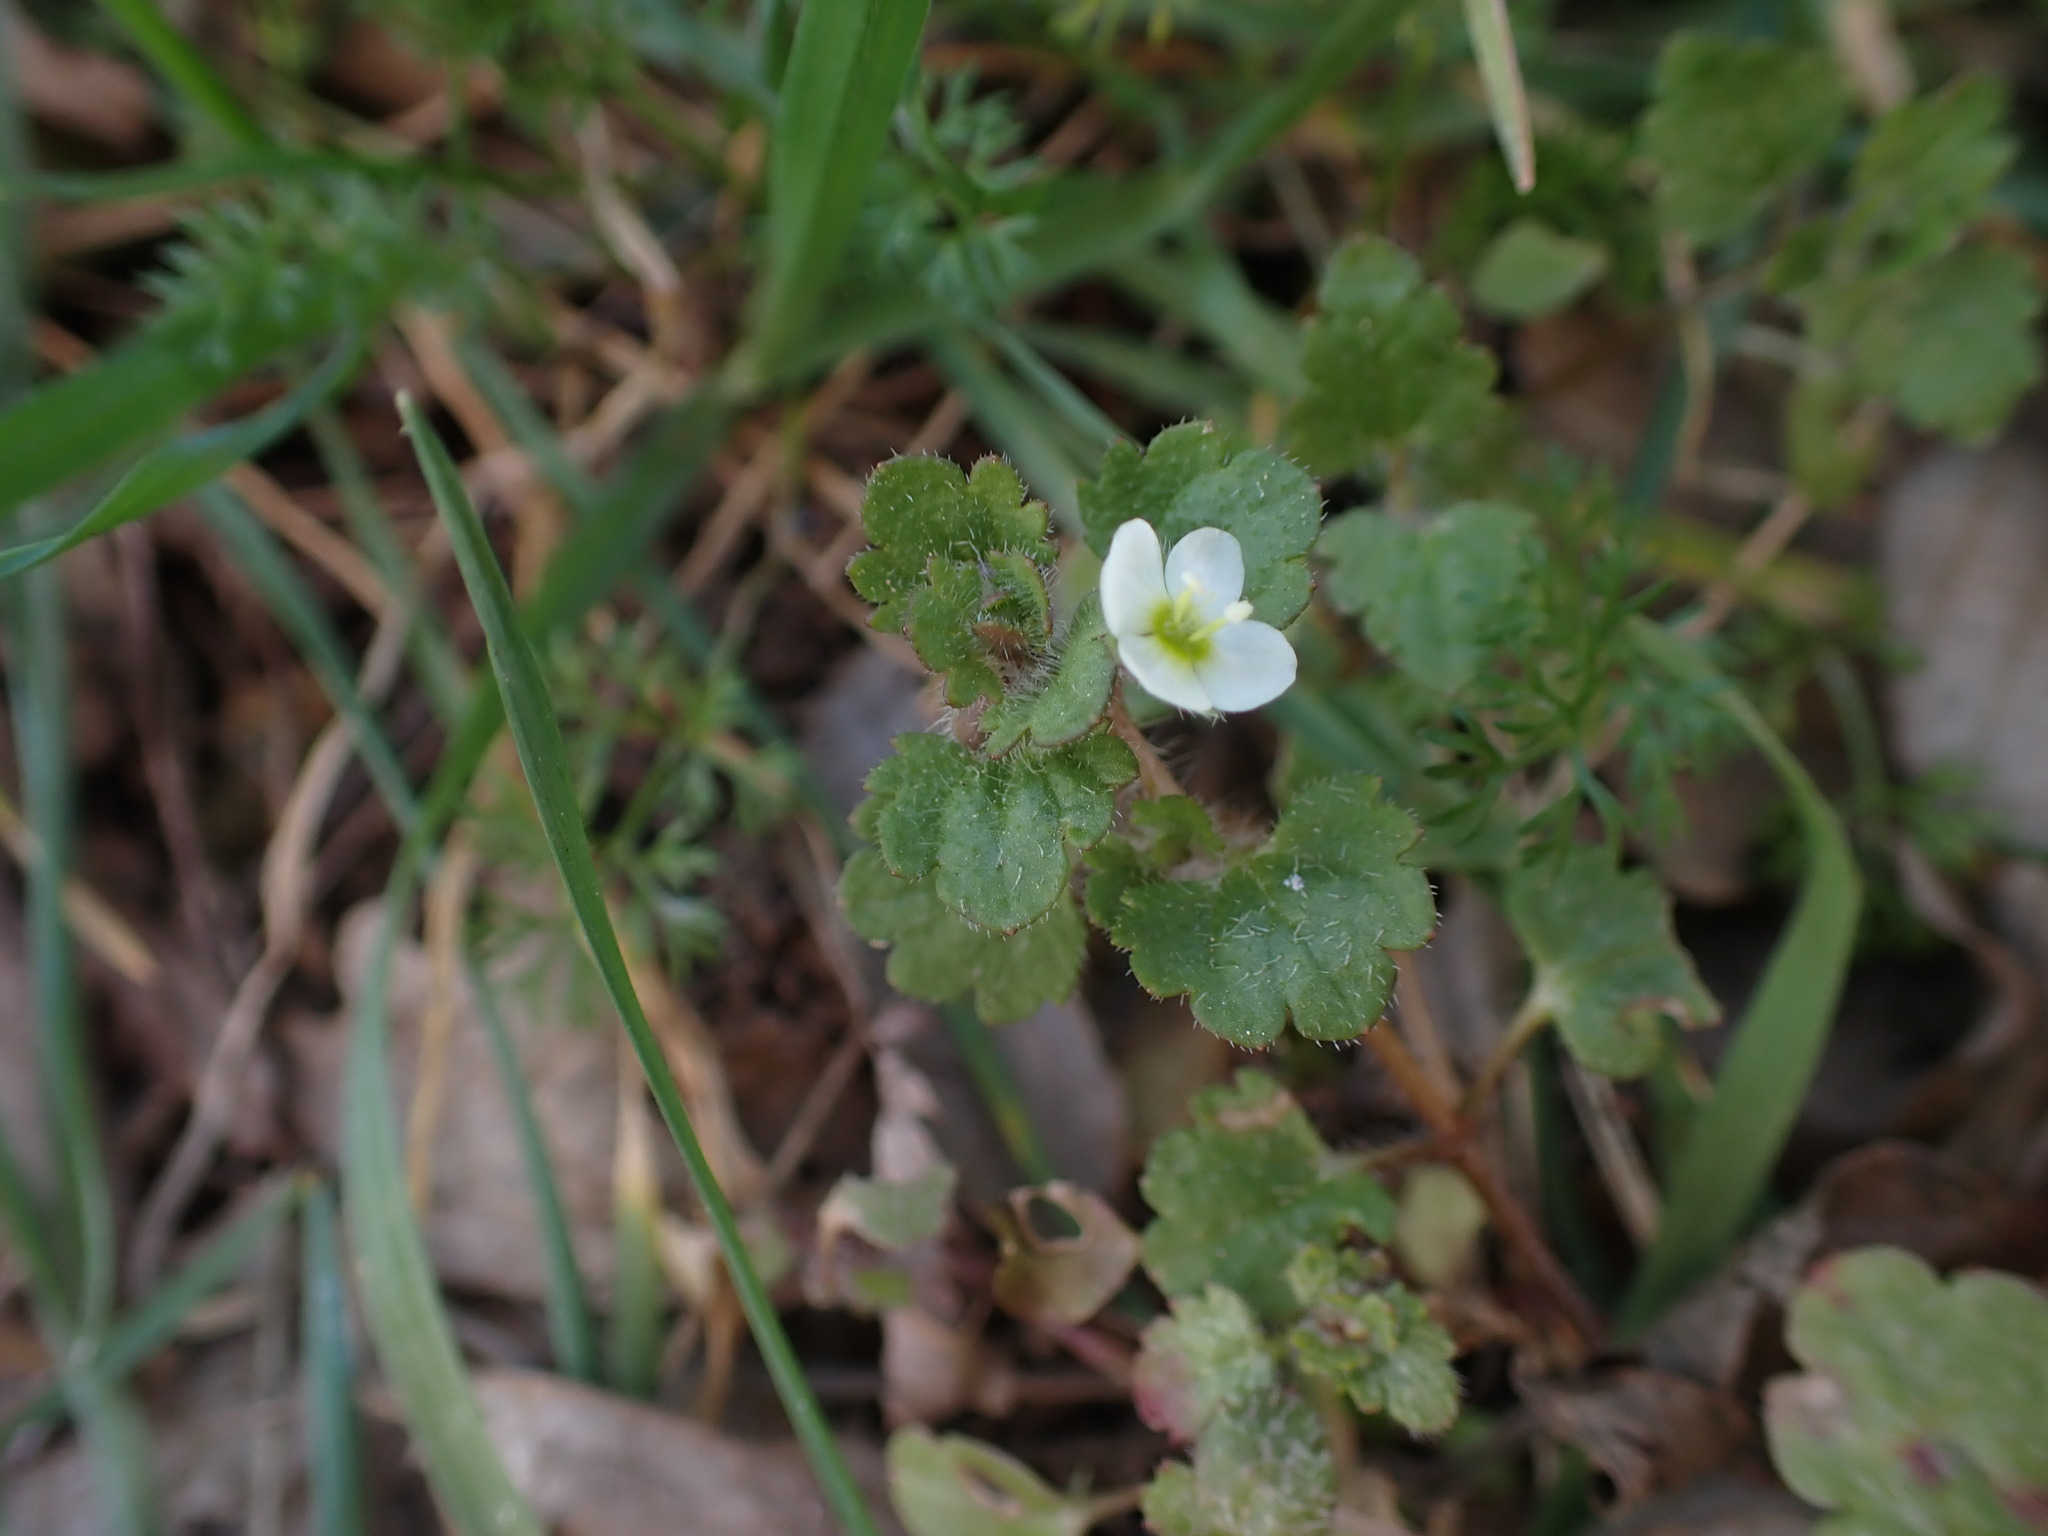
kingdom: Plantae
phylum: Tracheophyta
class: Magnoliopsida
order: Lamiales
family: Plantaginaceae
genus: Veronica
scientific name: Veronica cymbalaria
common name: Pale speedwell
